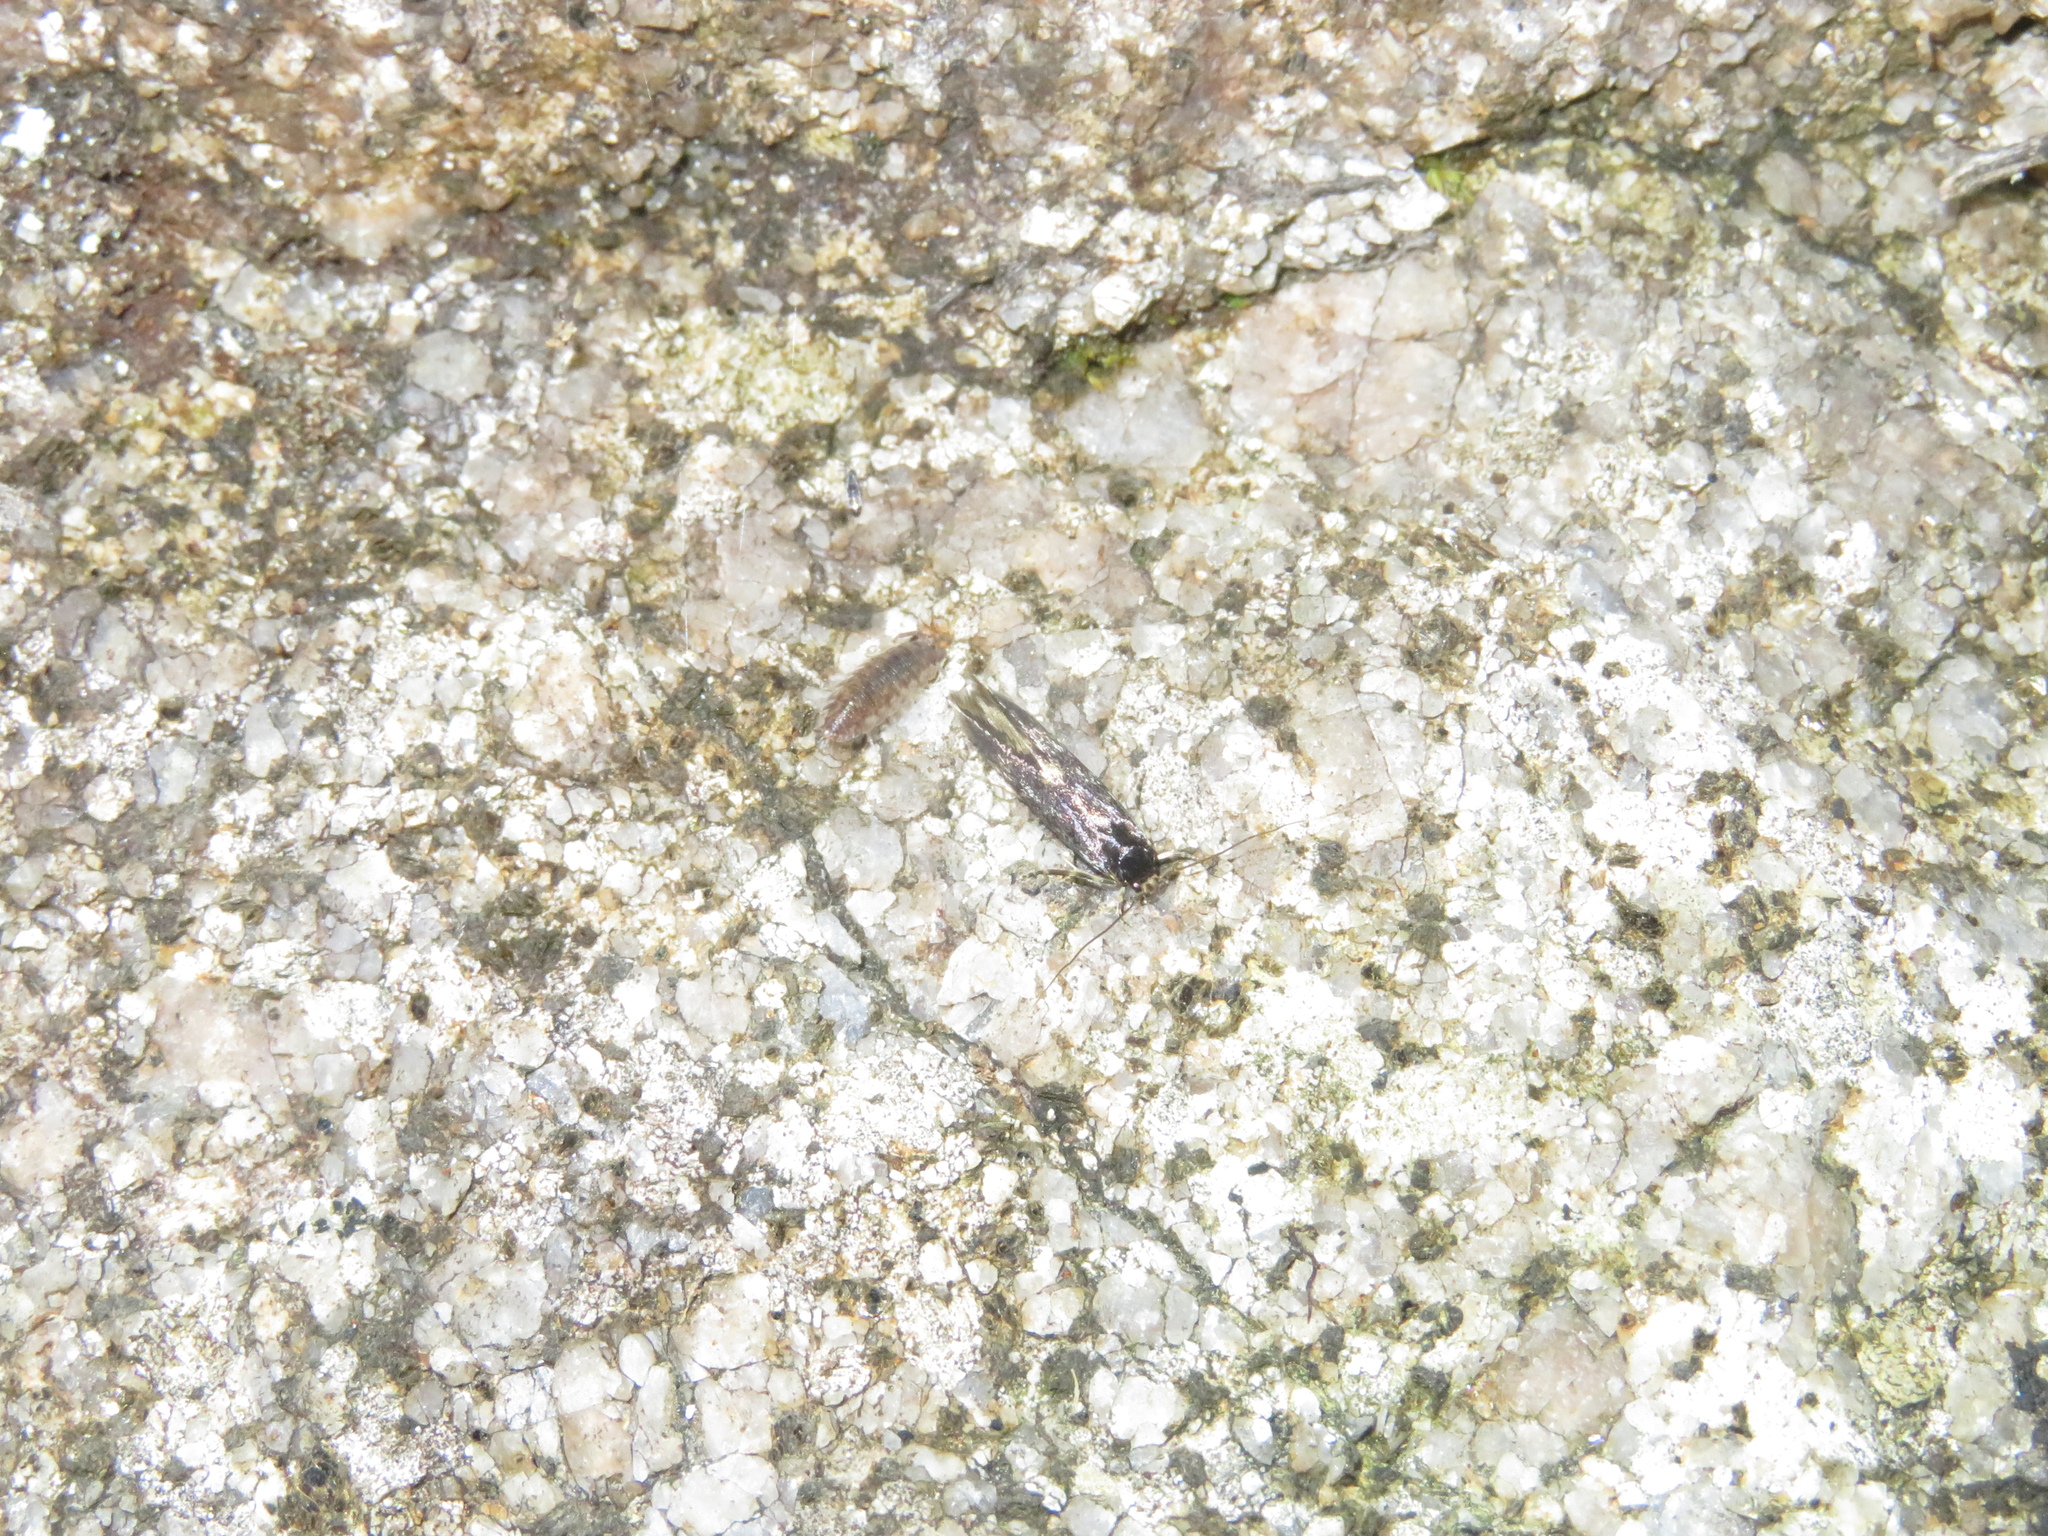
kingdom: Animalia
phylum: Arthropoda
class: Insecta
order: Lepidoptera
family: Tineidae
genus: Opogona
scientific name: Opogona omoscopa
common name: Moth
